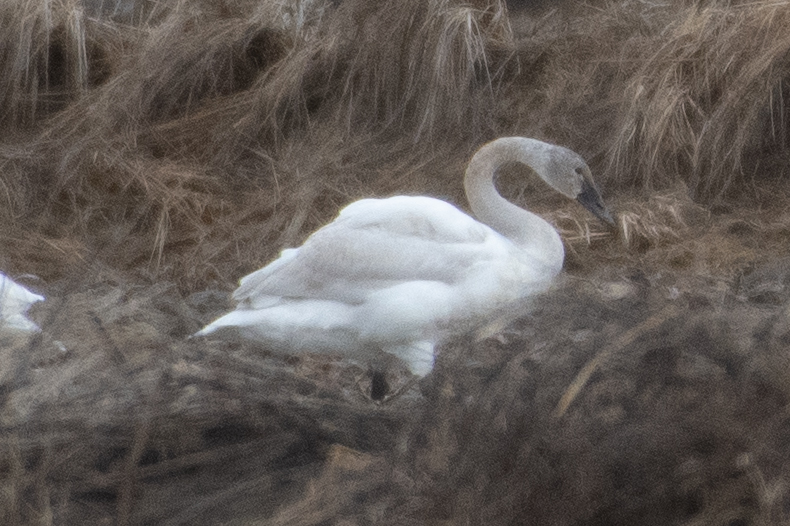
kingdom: Animalia
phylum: Chordata
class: Aves
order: Anseriformes
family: Anatidae
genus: Cygnus
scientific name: Cygnus columbianus
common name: Tundra swan
